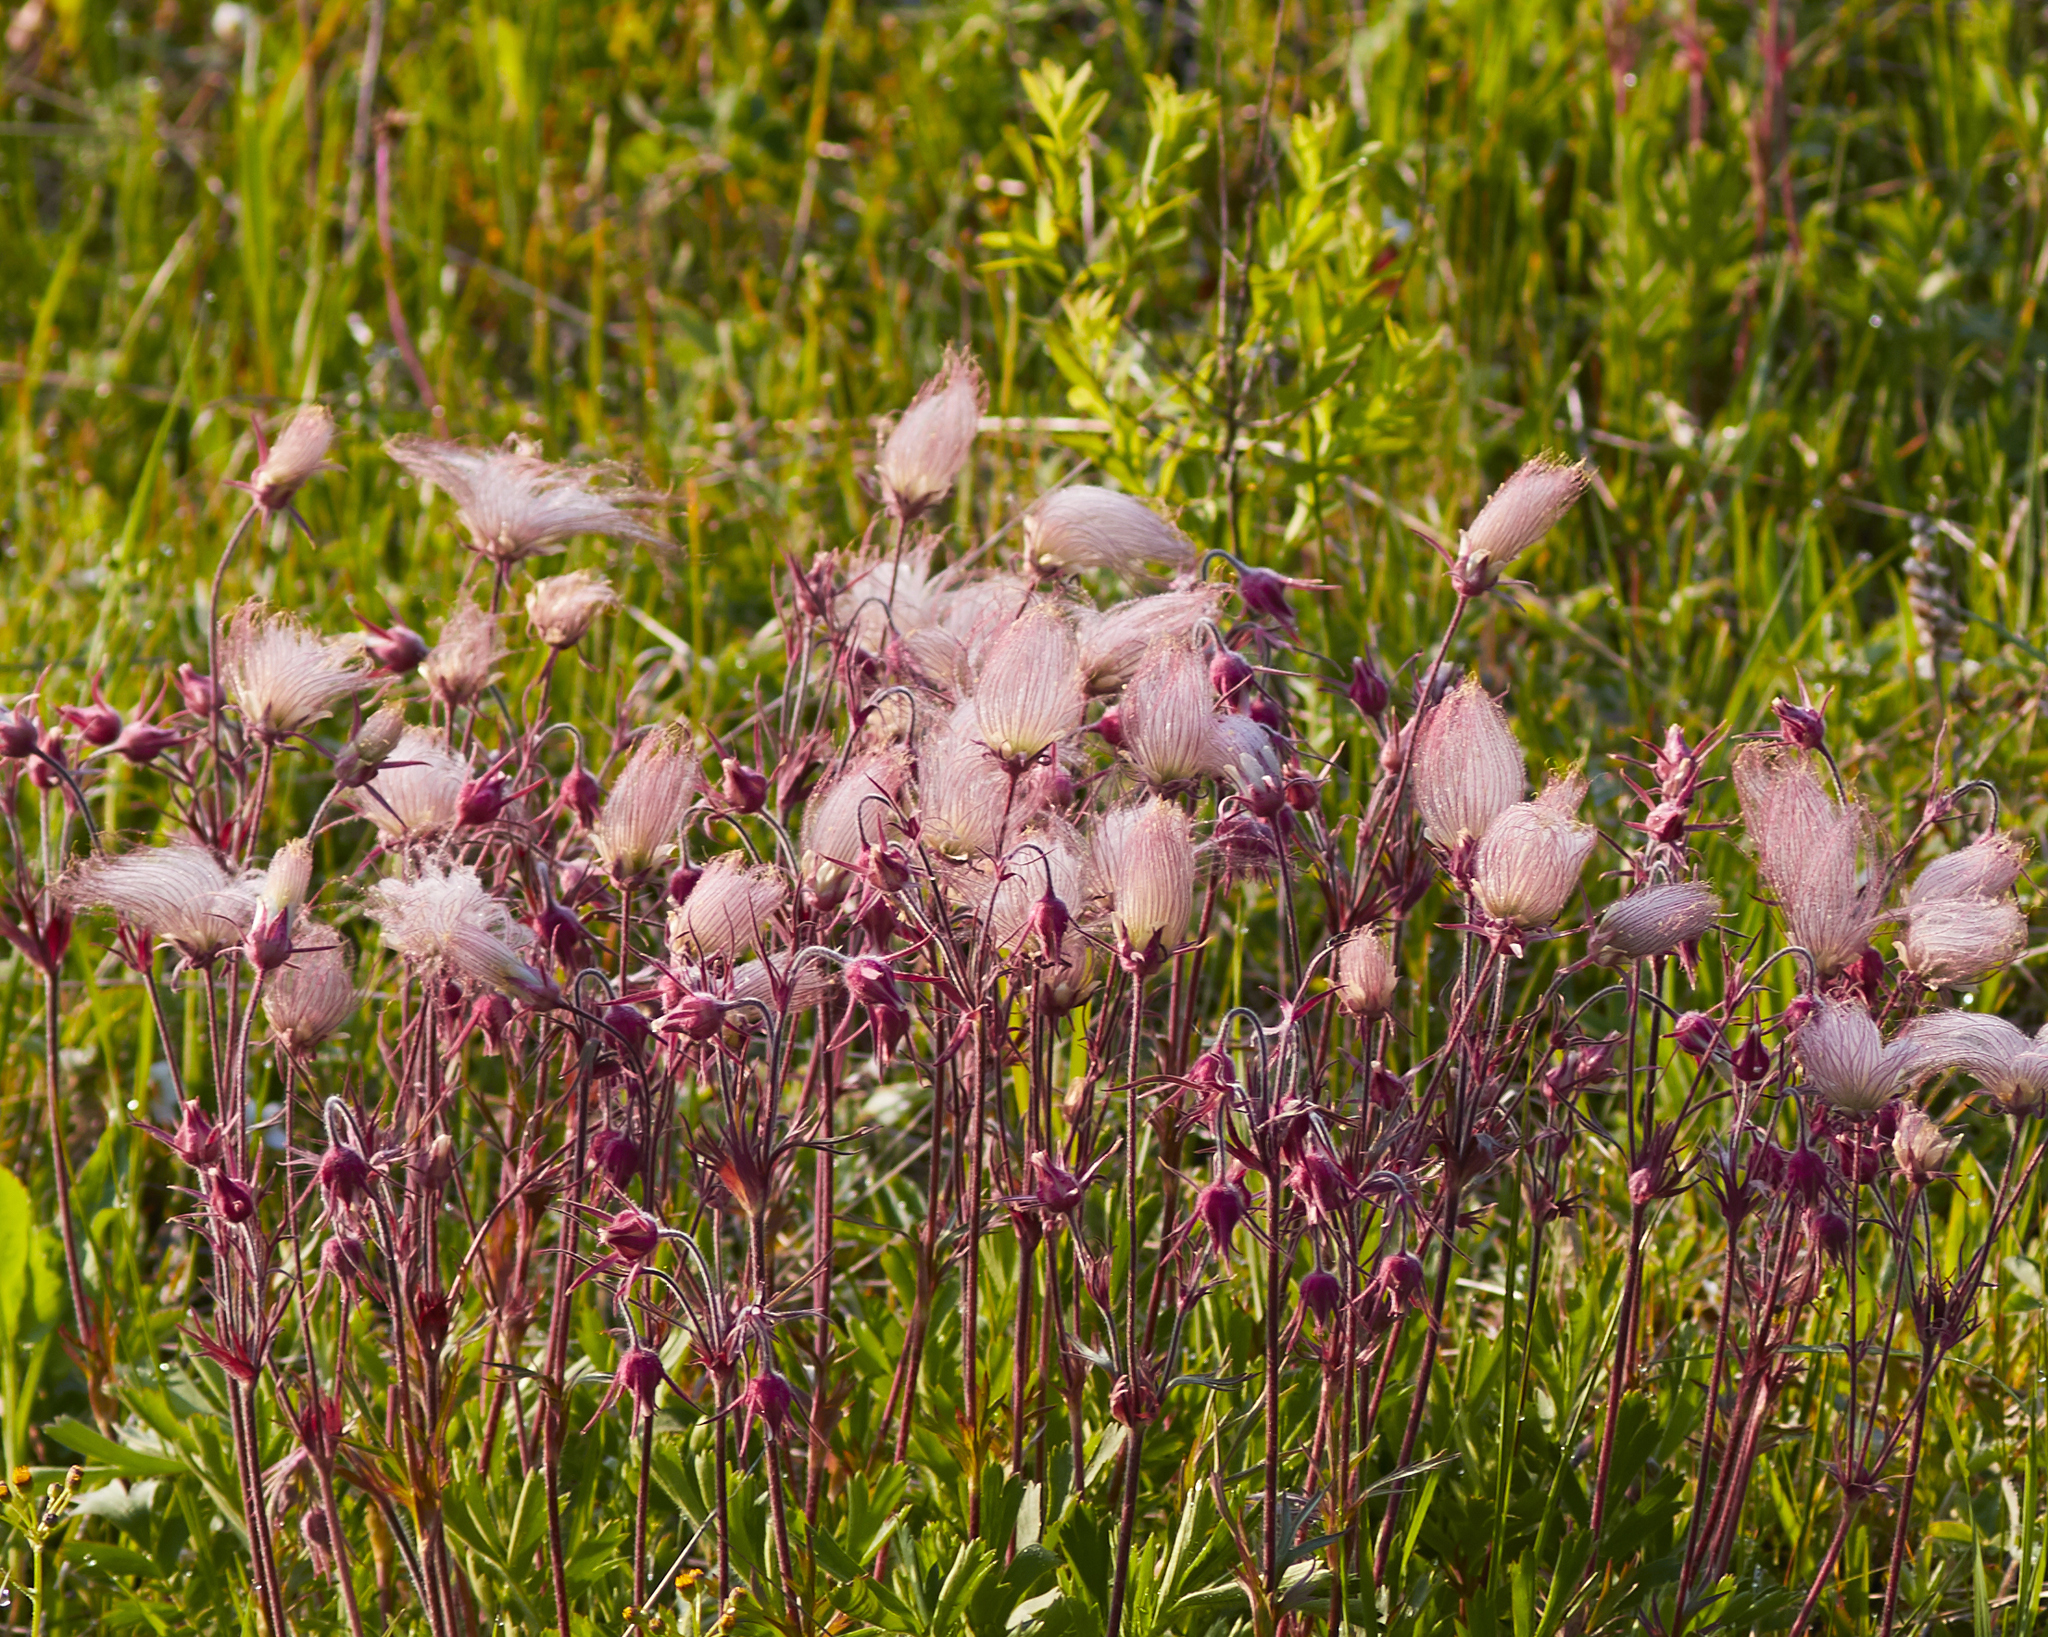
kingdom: Plantae
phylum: Tracheophyta
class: Magnoliopsida
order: Rosales
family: Rosaceae
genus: Geum
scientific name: Geum triflorum
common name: Old man's whiskers
